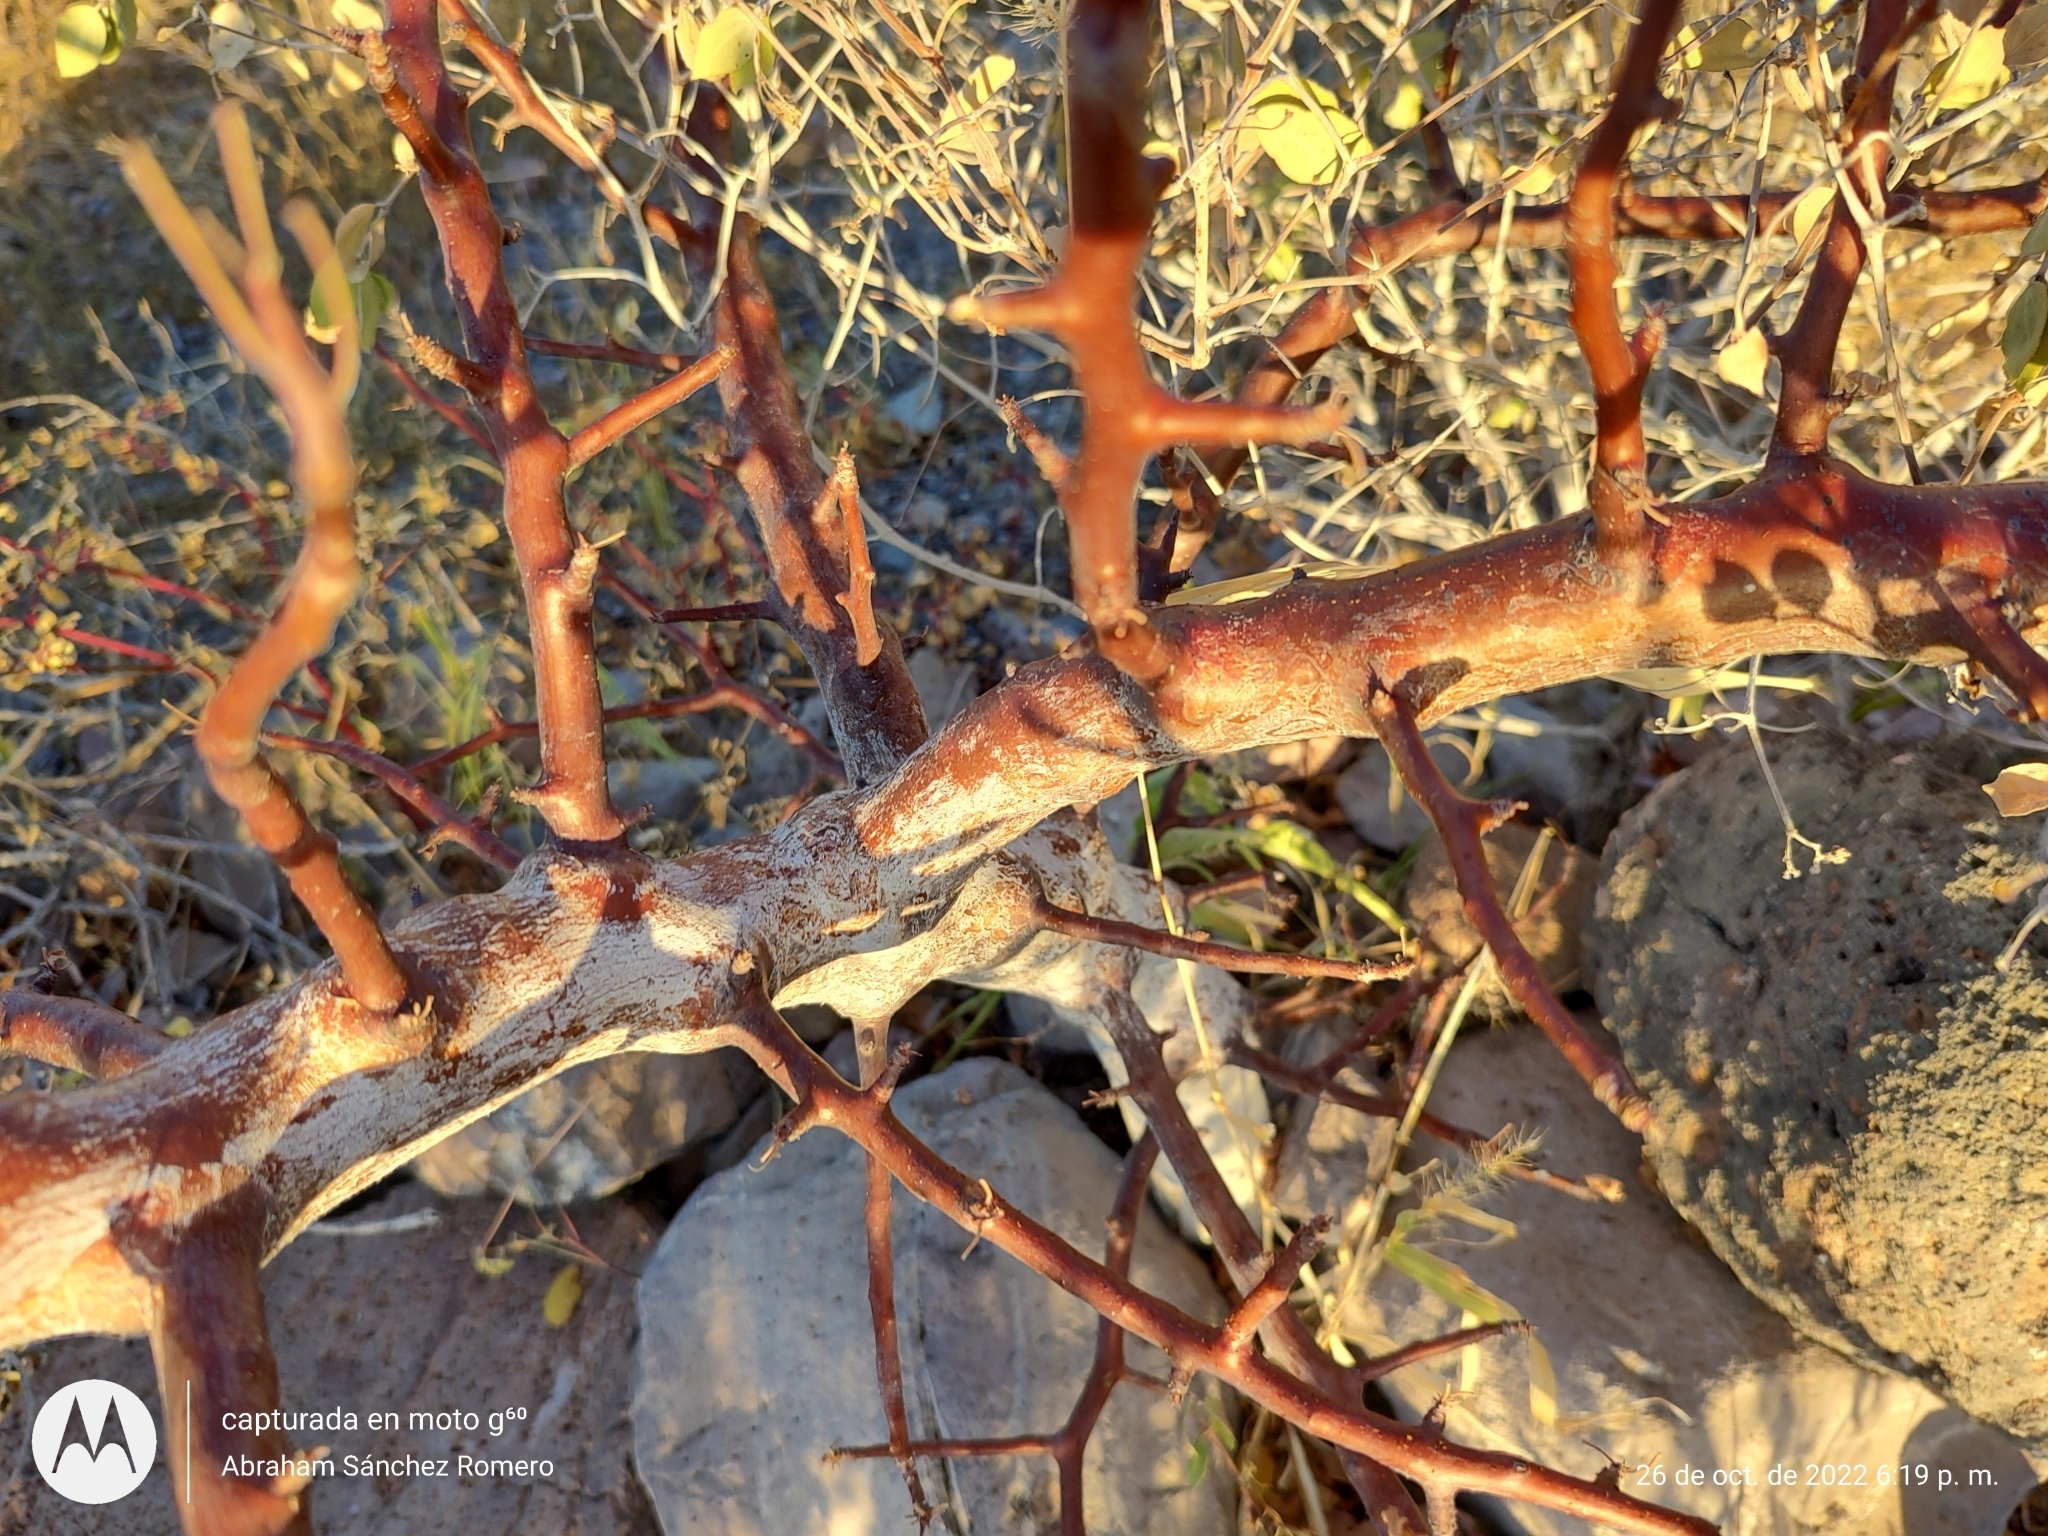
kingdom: Plantae
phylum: Tracheophyta
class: Magnoliopsida
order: Sapindales
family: Burseraceae
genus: Bursera
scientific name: Bursera epinnata
